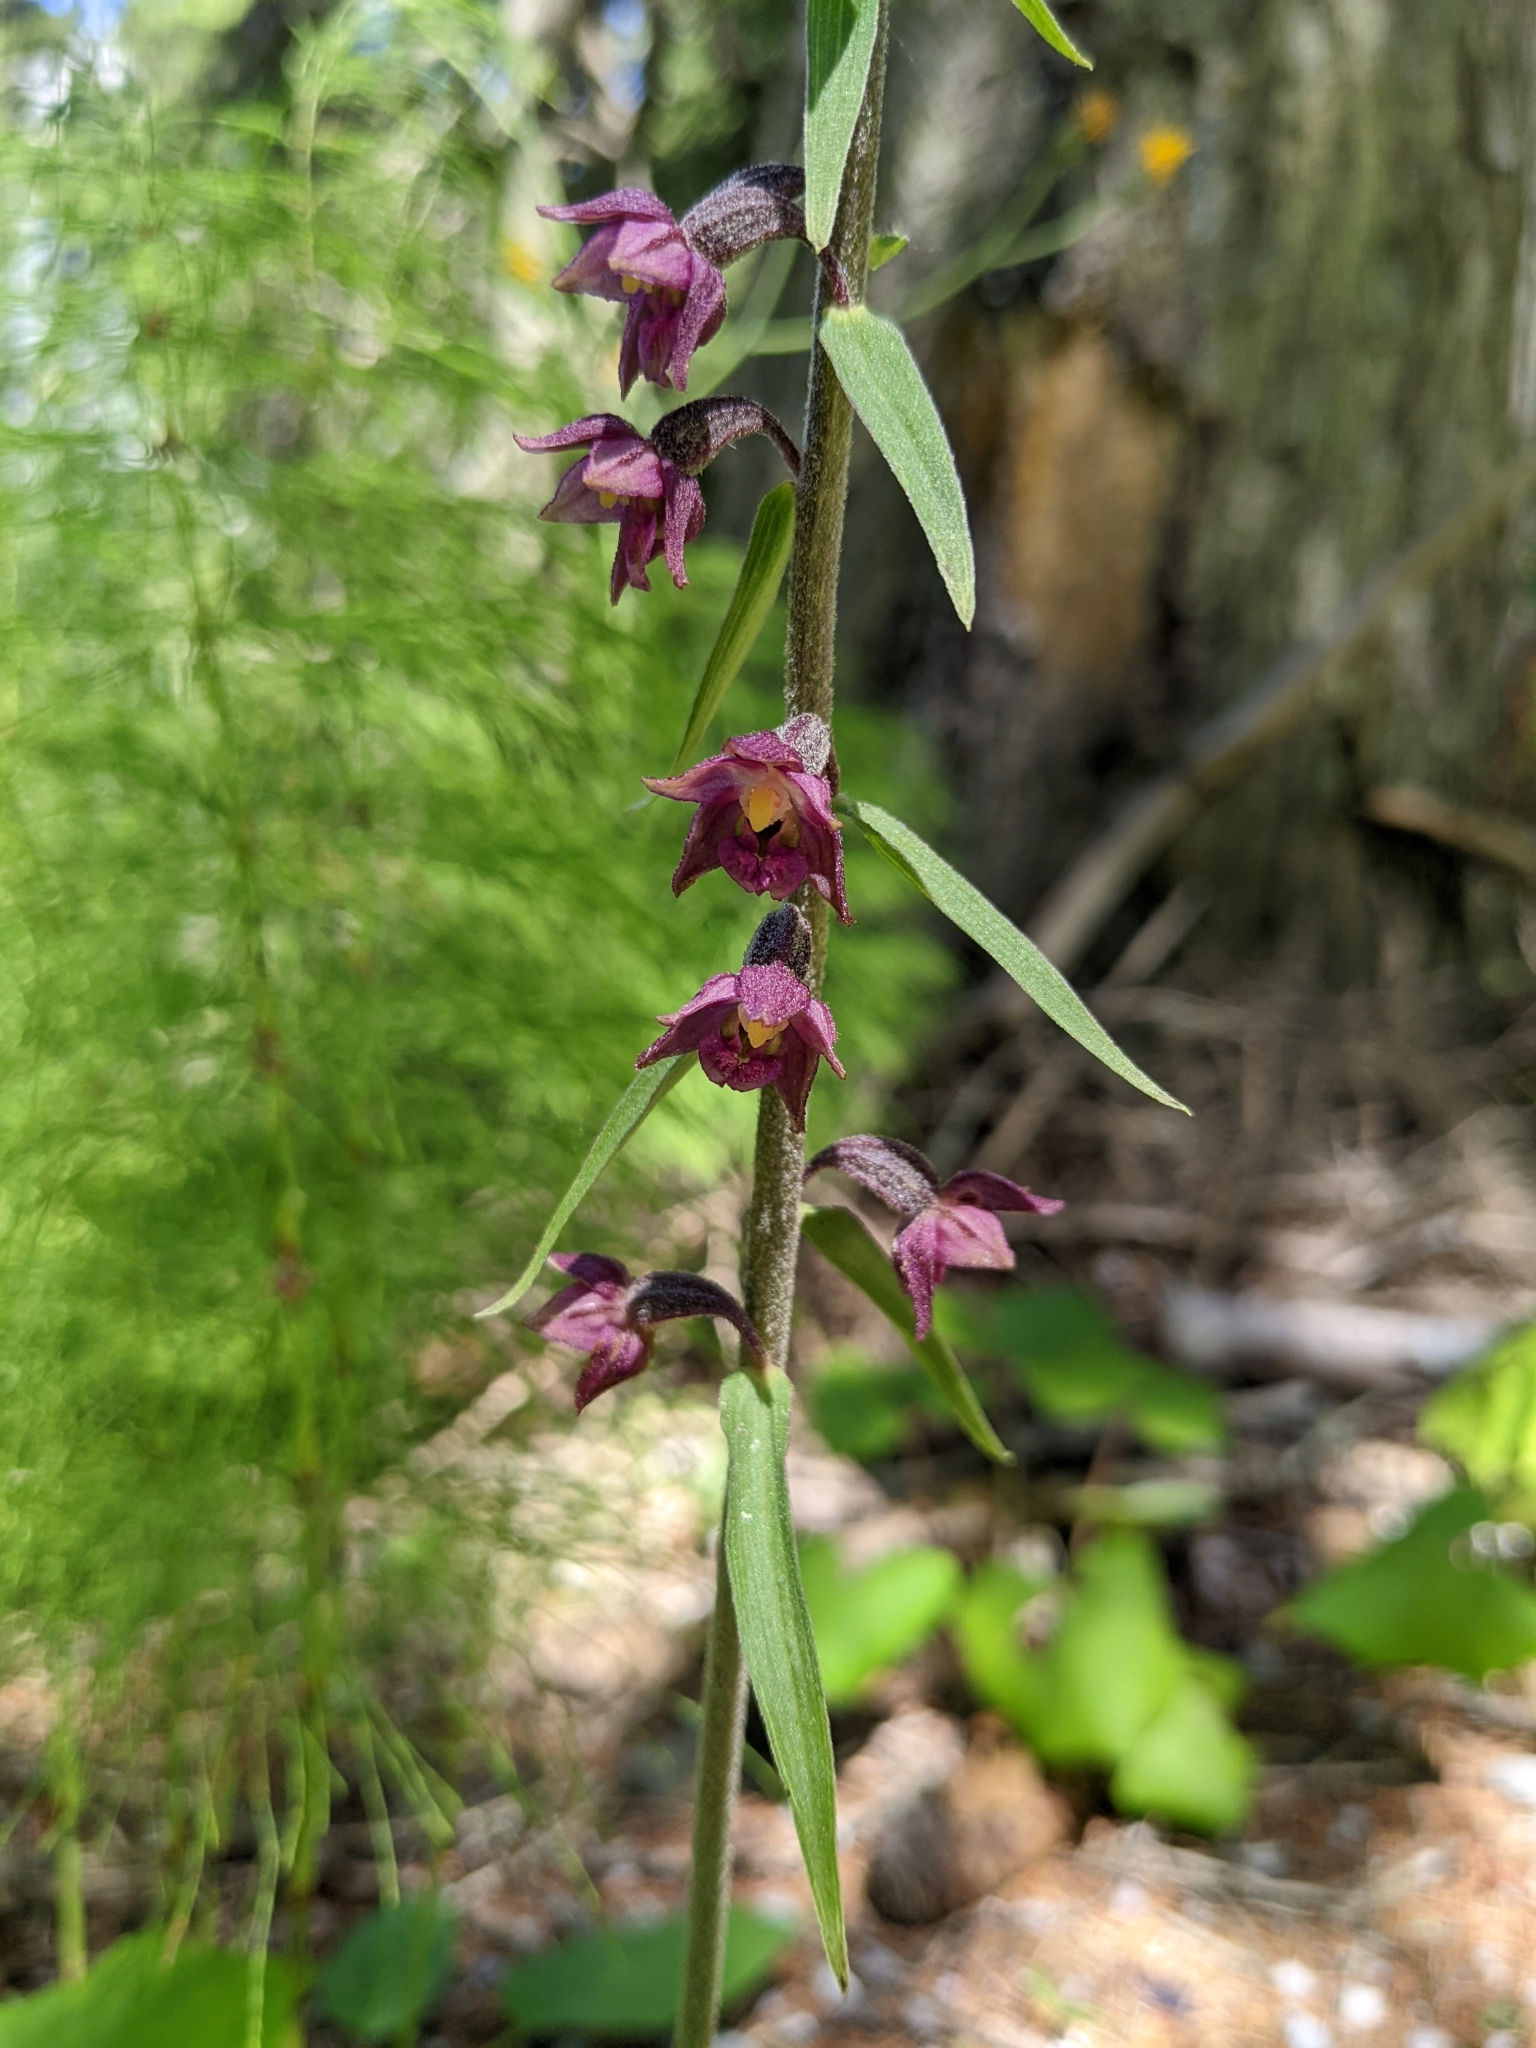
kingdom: Plantae
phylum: Tracheophyta
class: Liliopsida
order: Asparagales
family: Orchidaceae
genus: Epipactis
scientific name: Epipactis atrorubens
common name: Dark-red helleborine
